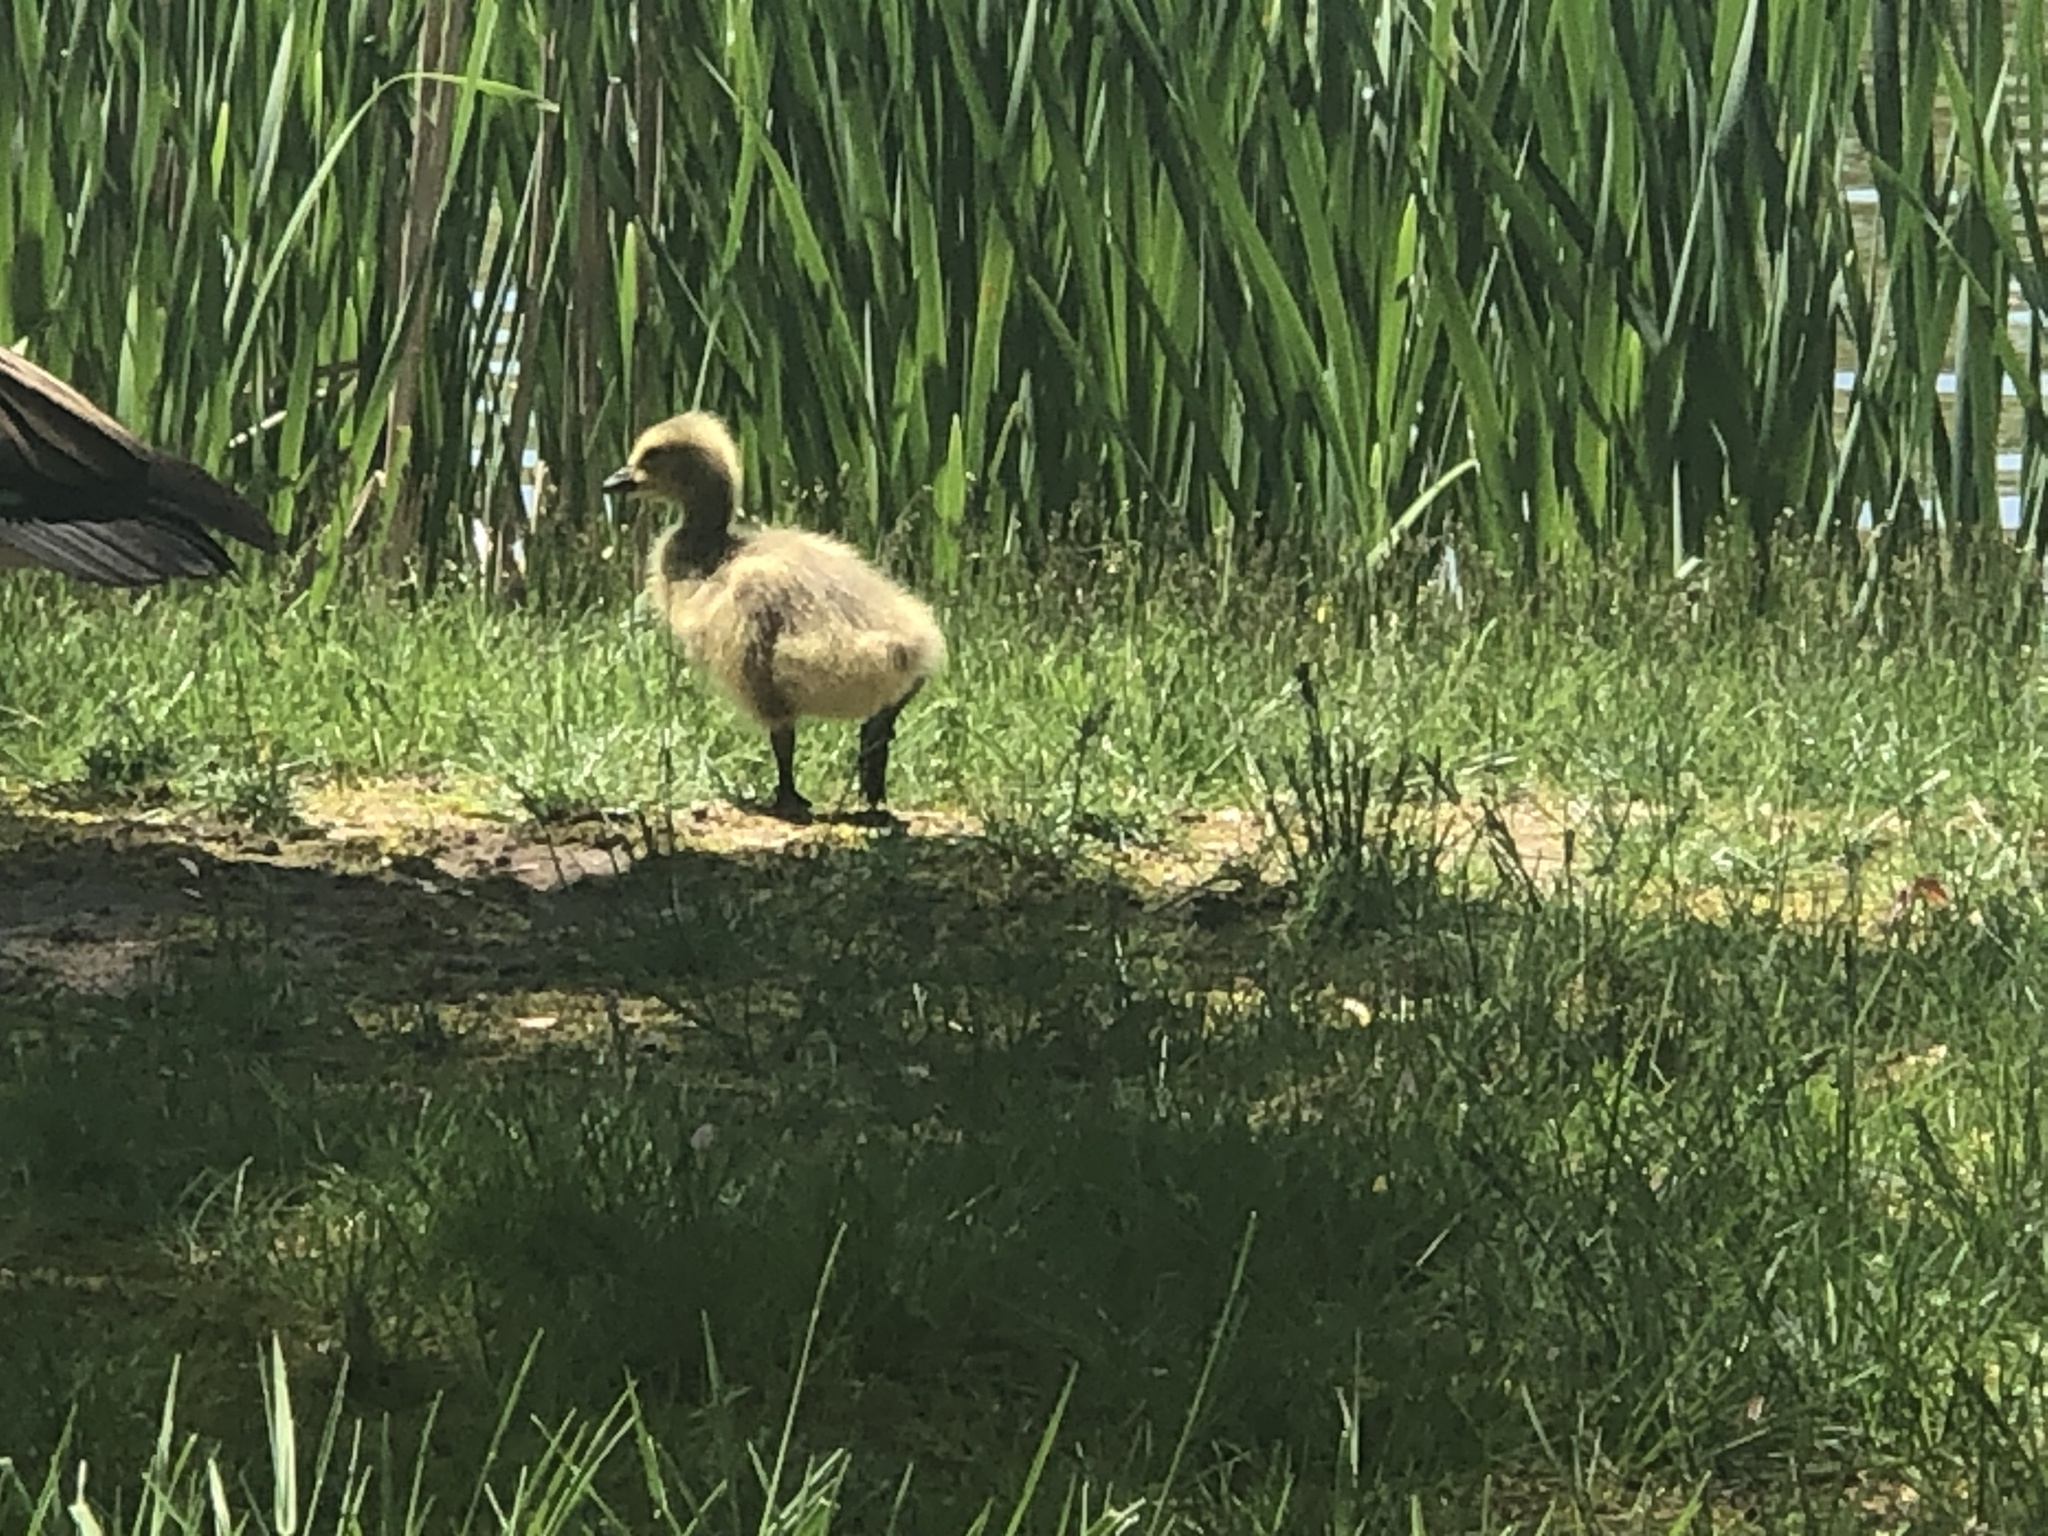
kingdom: Animalia
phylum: Chordata
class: Aves
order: Anseriformes
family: Anatidae
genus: Branta
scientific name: Branta canadensis
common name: Canada goose
